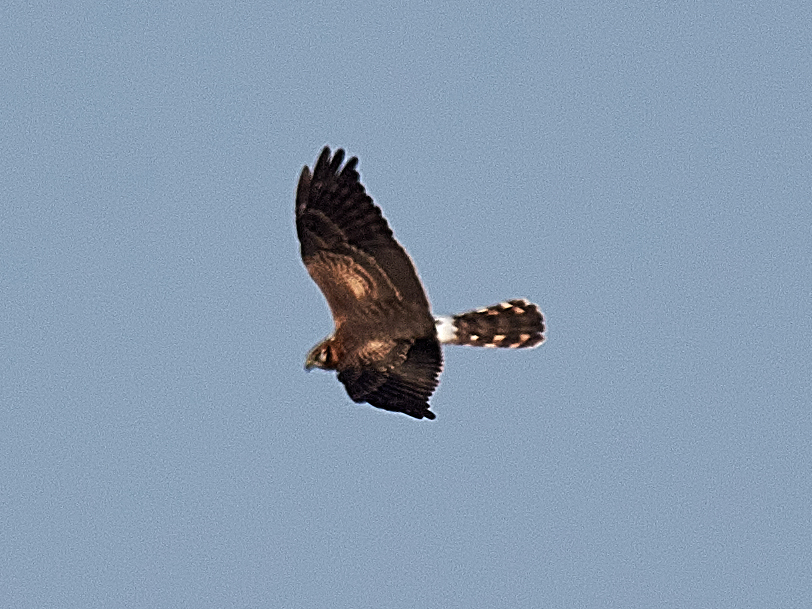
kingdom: Animalia
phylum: Chordata
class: Aves
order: Accipitriformes
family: Accipitridae
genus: Circus
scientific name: Circus pygargus
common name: Montagu's harrier
